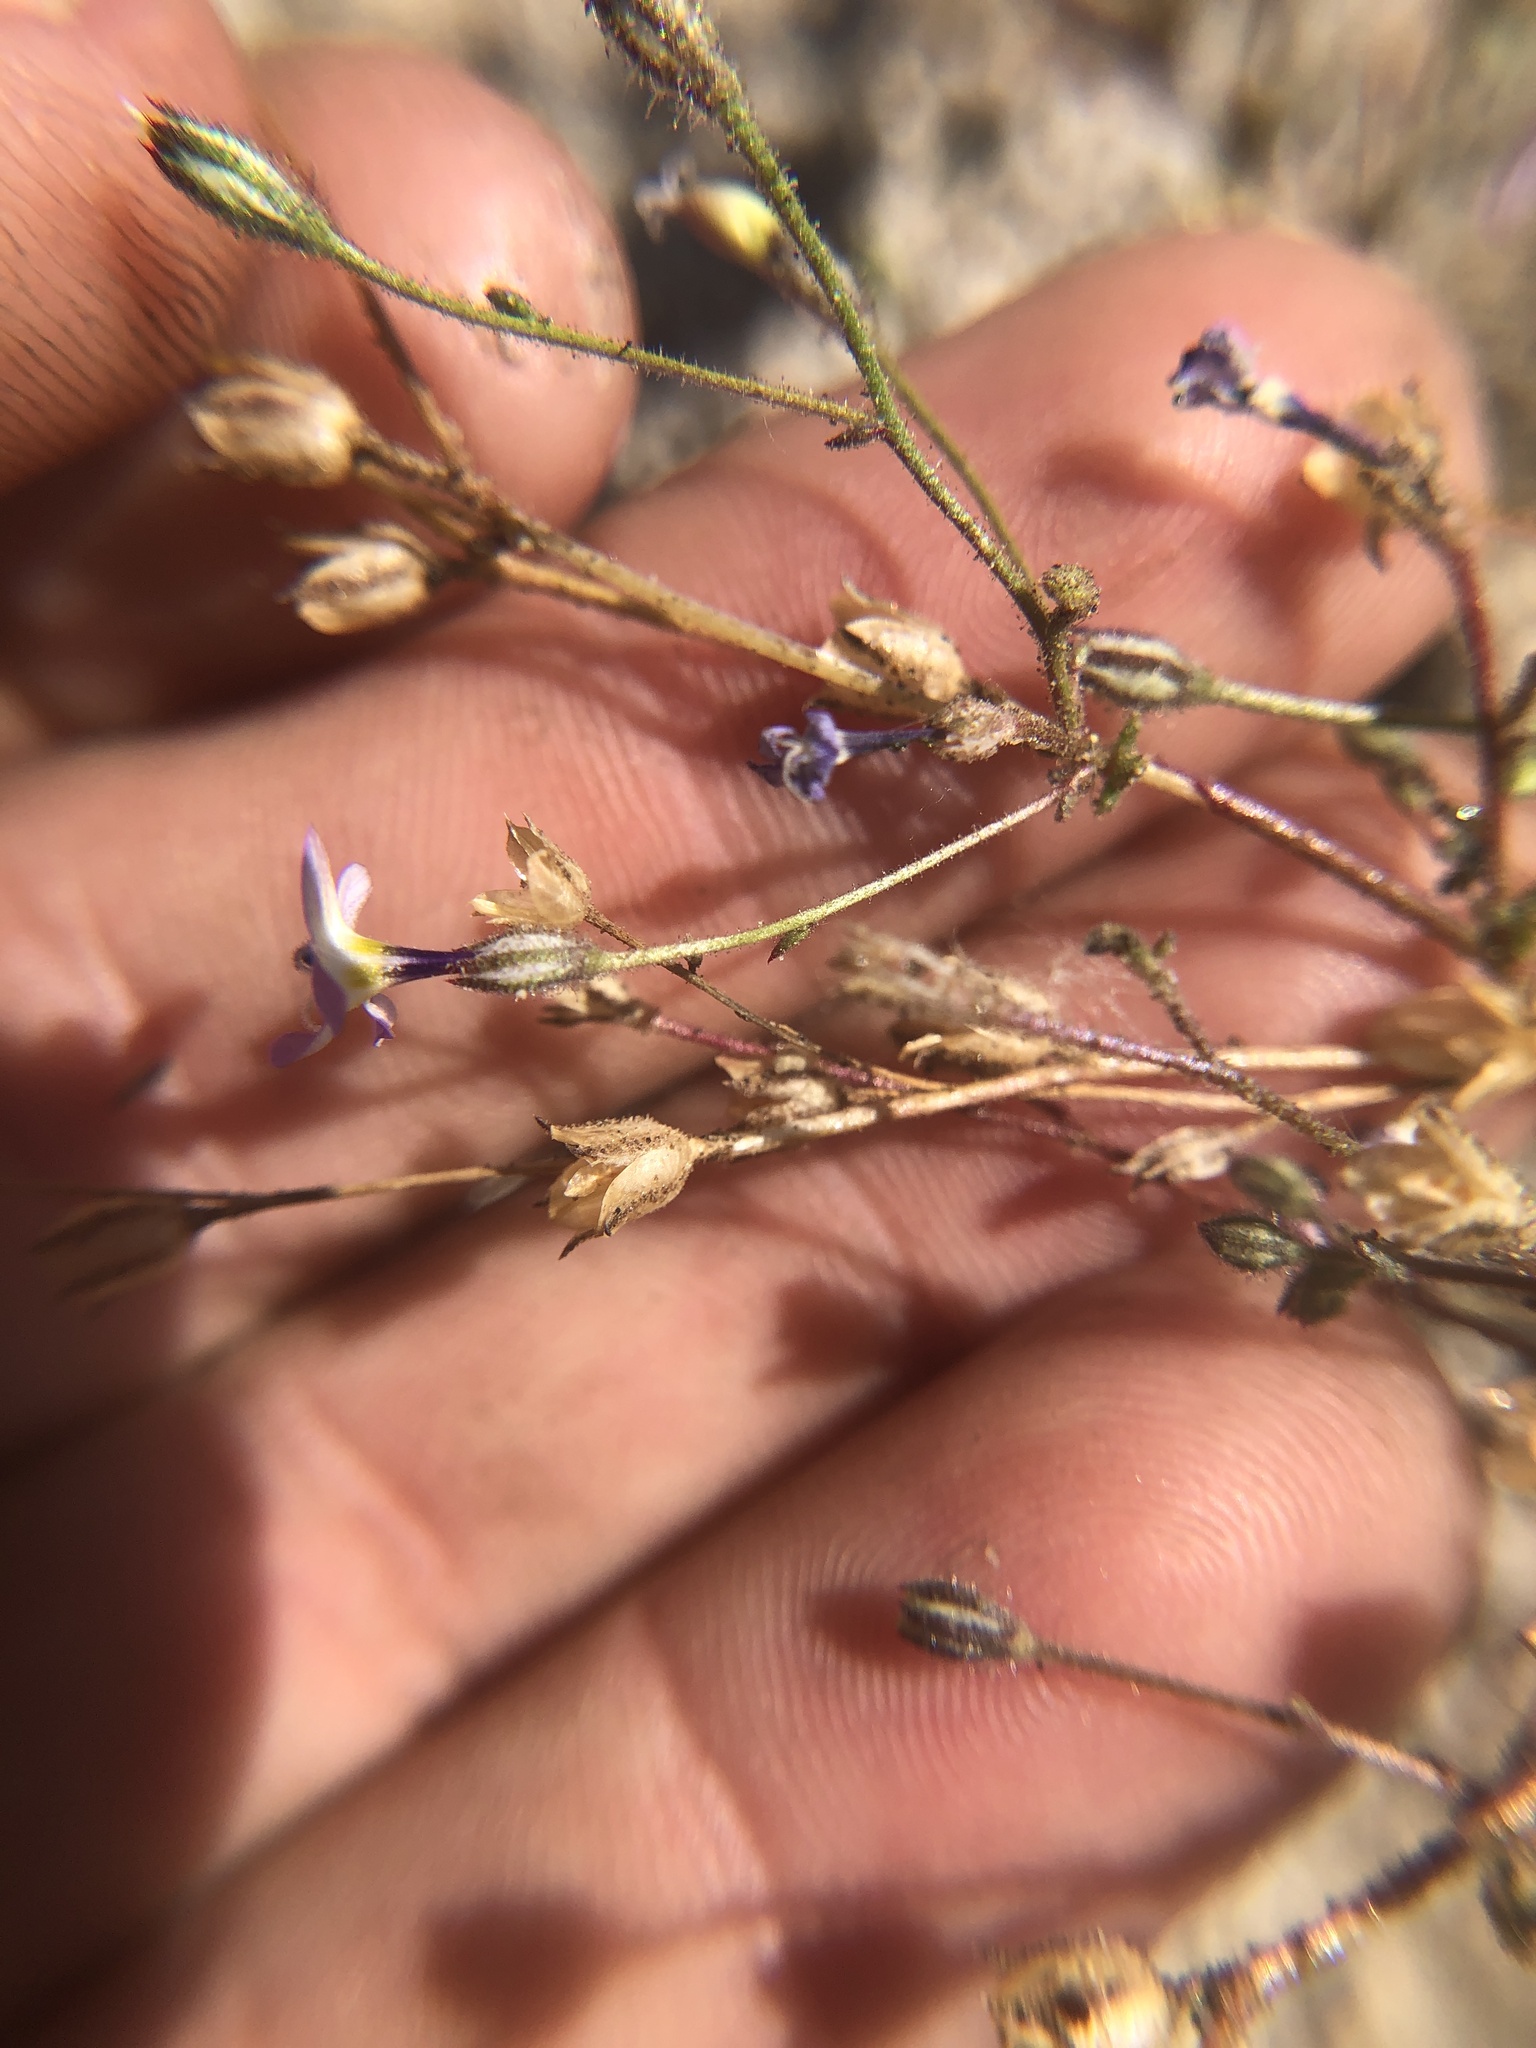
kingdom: Plantae
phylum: Tracheophyta
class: Magnoliopsida
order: Ericales
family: Polemoniaceae
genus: Gilia
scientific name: Gilia cana
